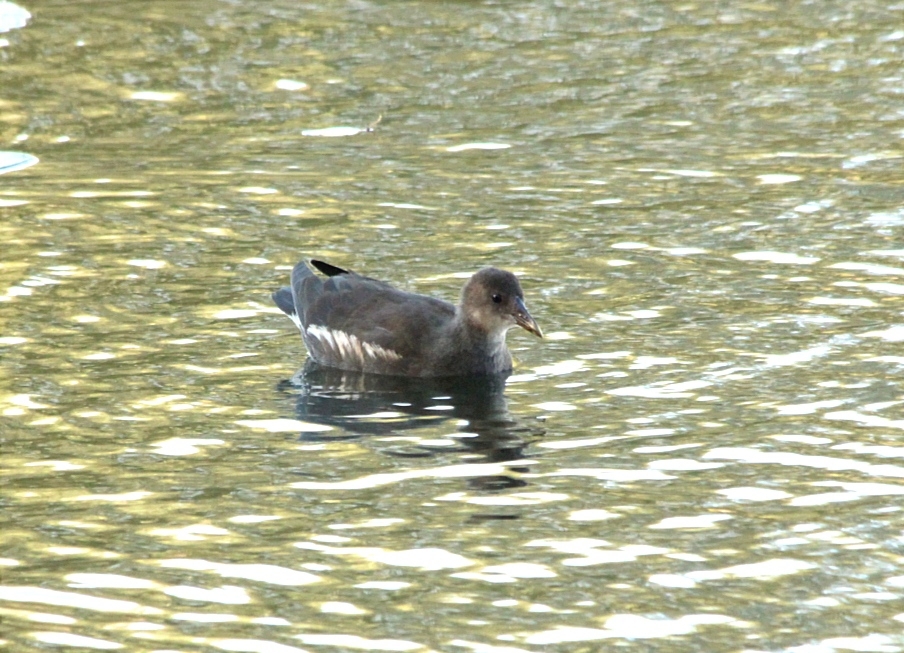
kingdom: Animalia
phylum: Chordata
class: Aves
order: Gruiformes
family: Rallidae
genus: Gallinula
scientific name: Gallinula chloropus
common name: Common moorhen
